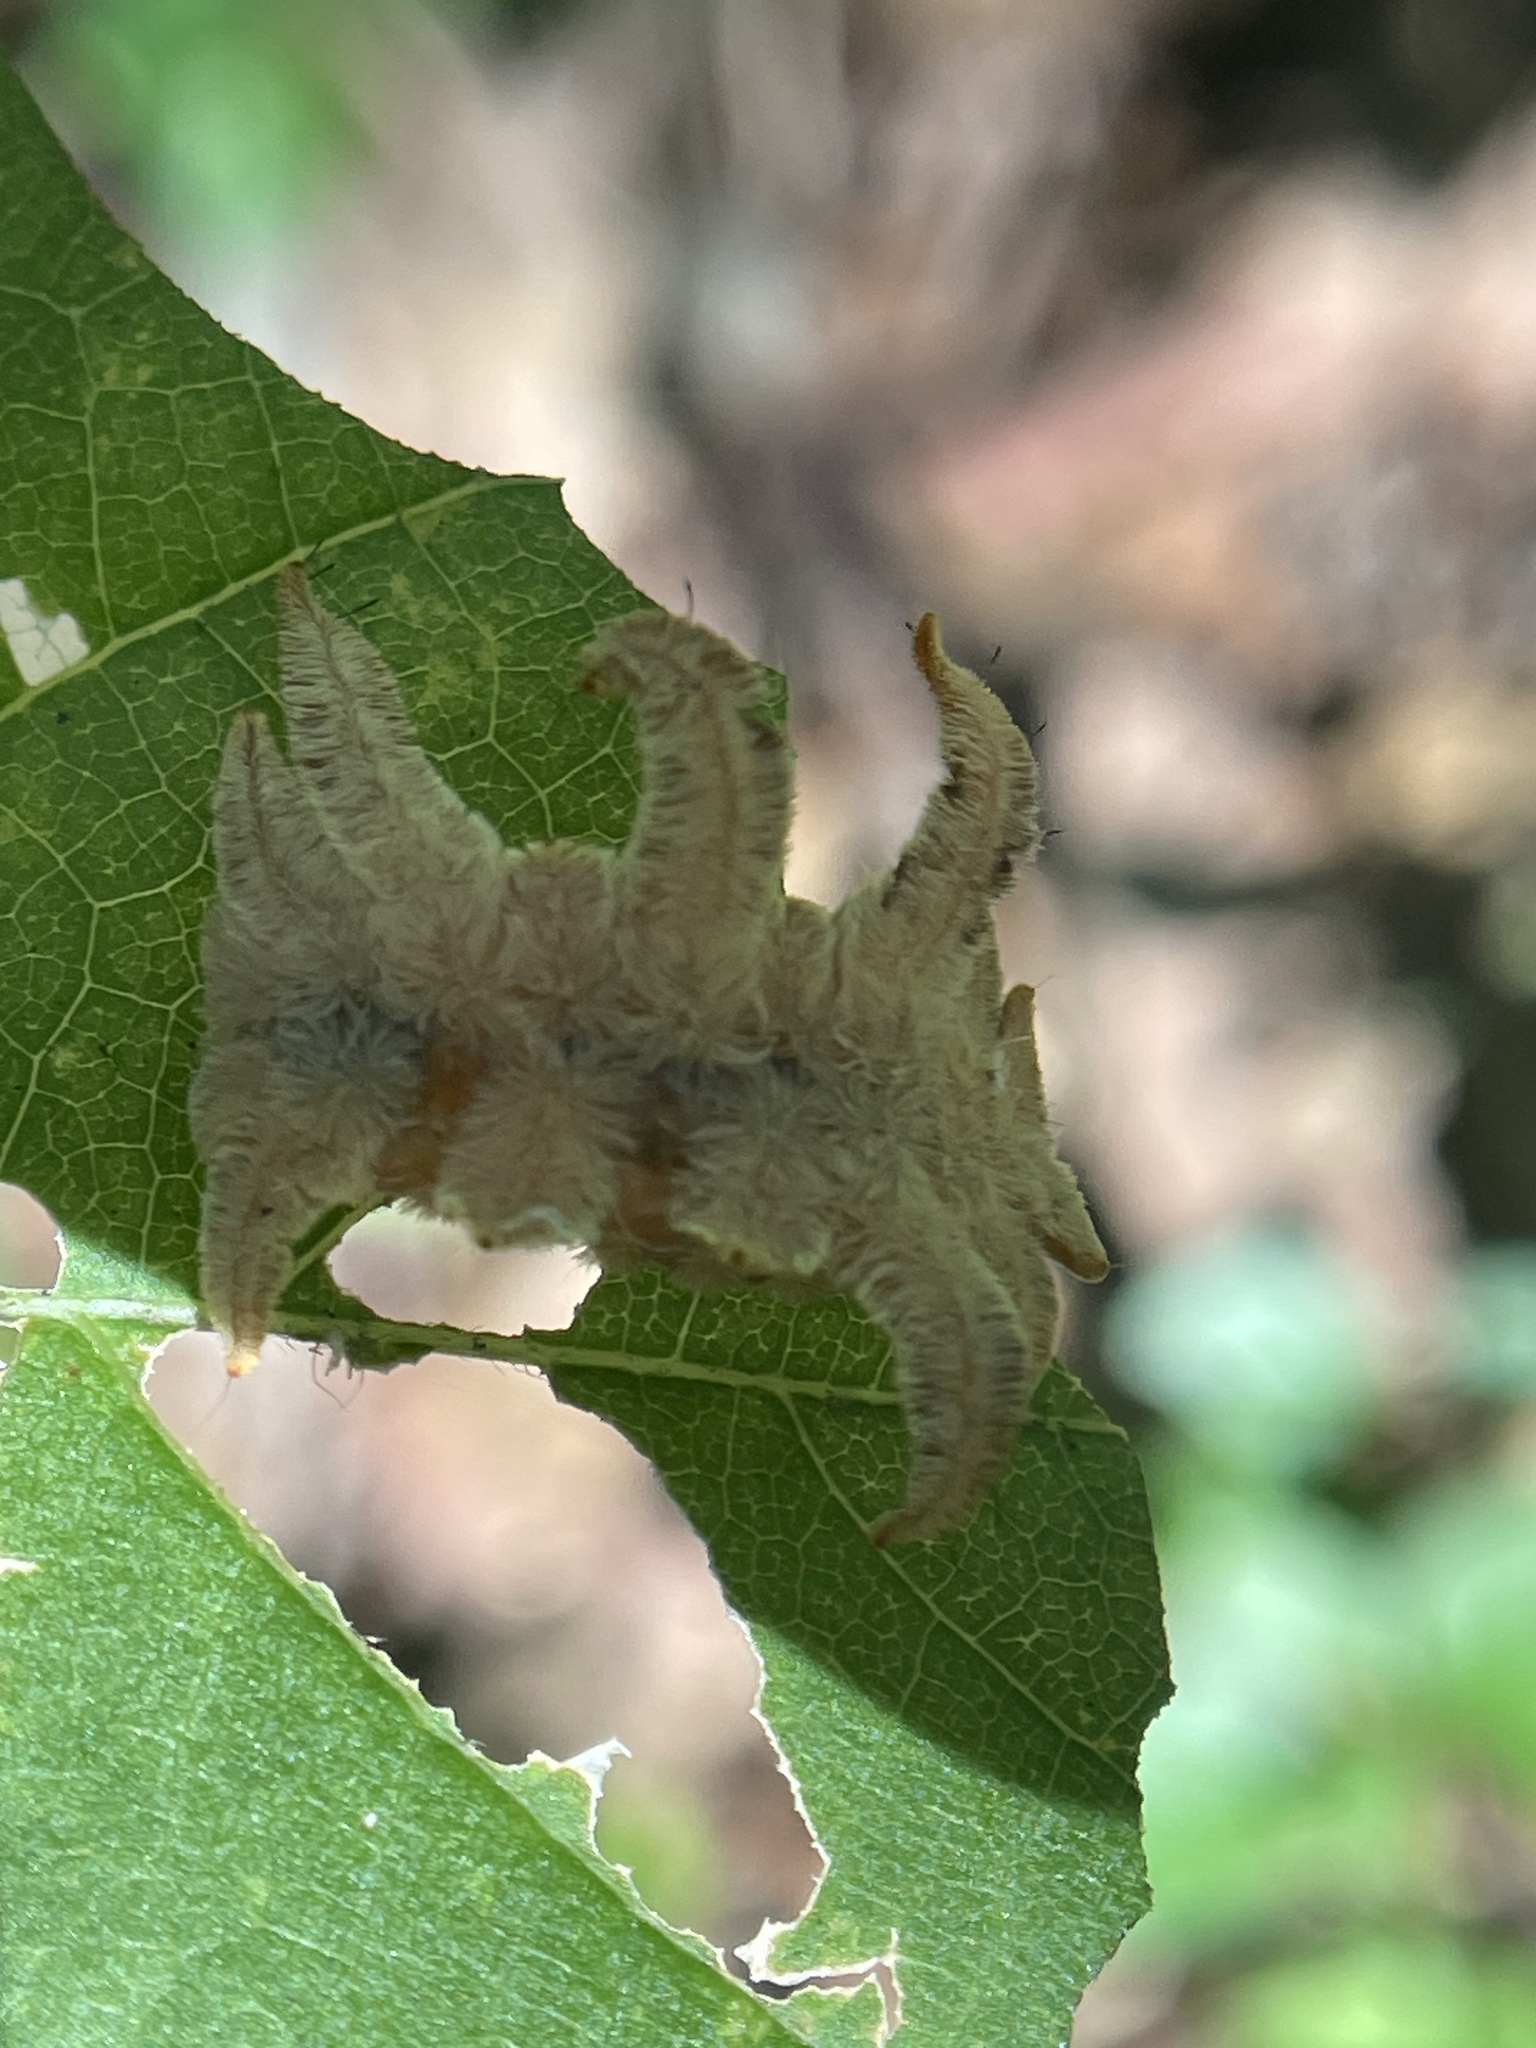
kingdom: Animalia
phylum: Arthropoda
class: Insecta
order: Lepidoptera
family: Limacodidae
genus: Phobetron
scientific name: Phobetron pithecium
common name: Hag moth
